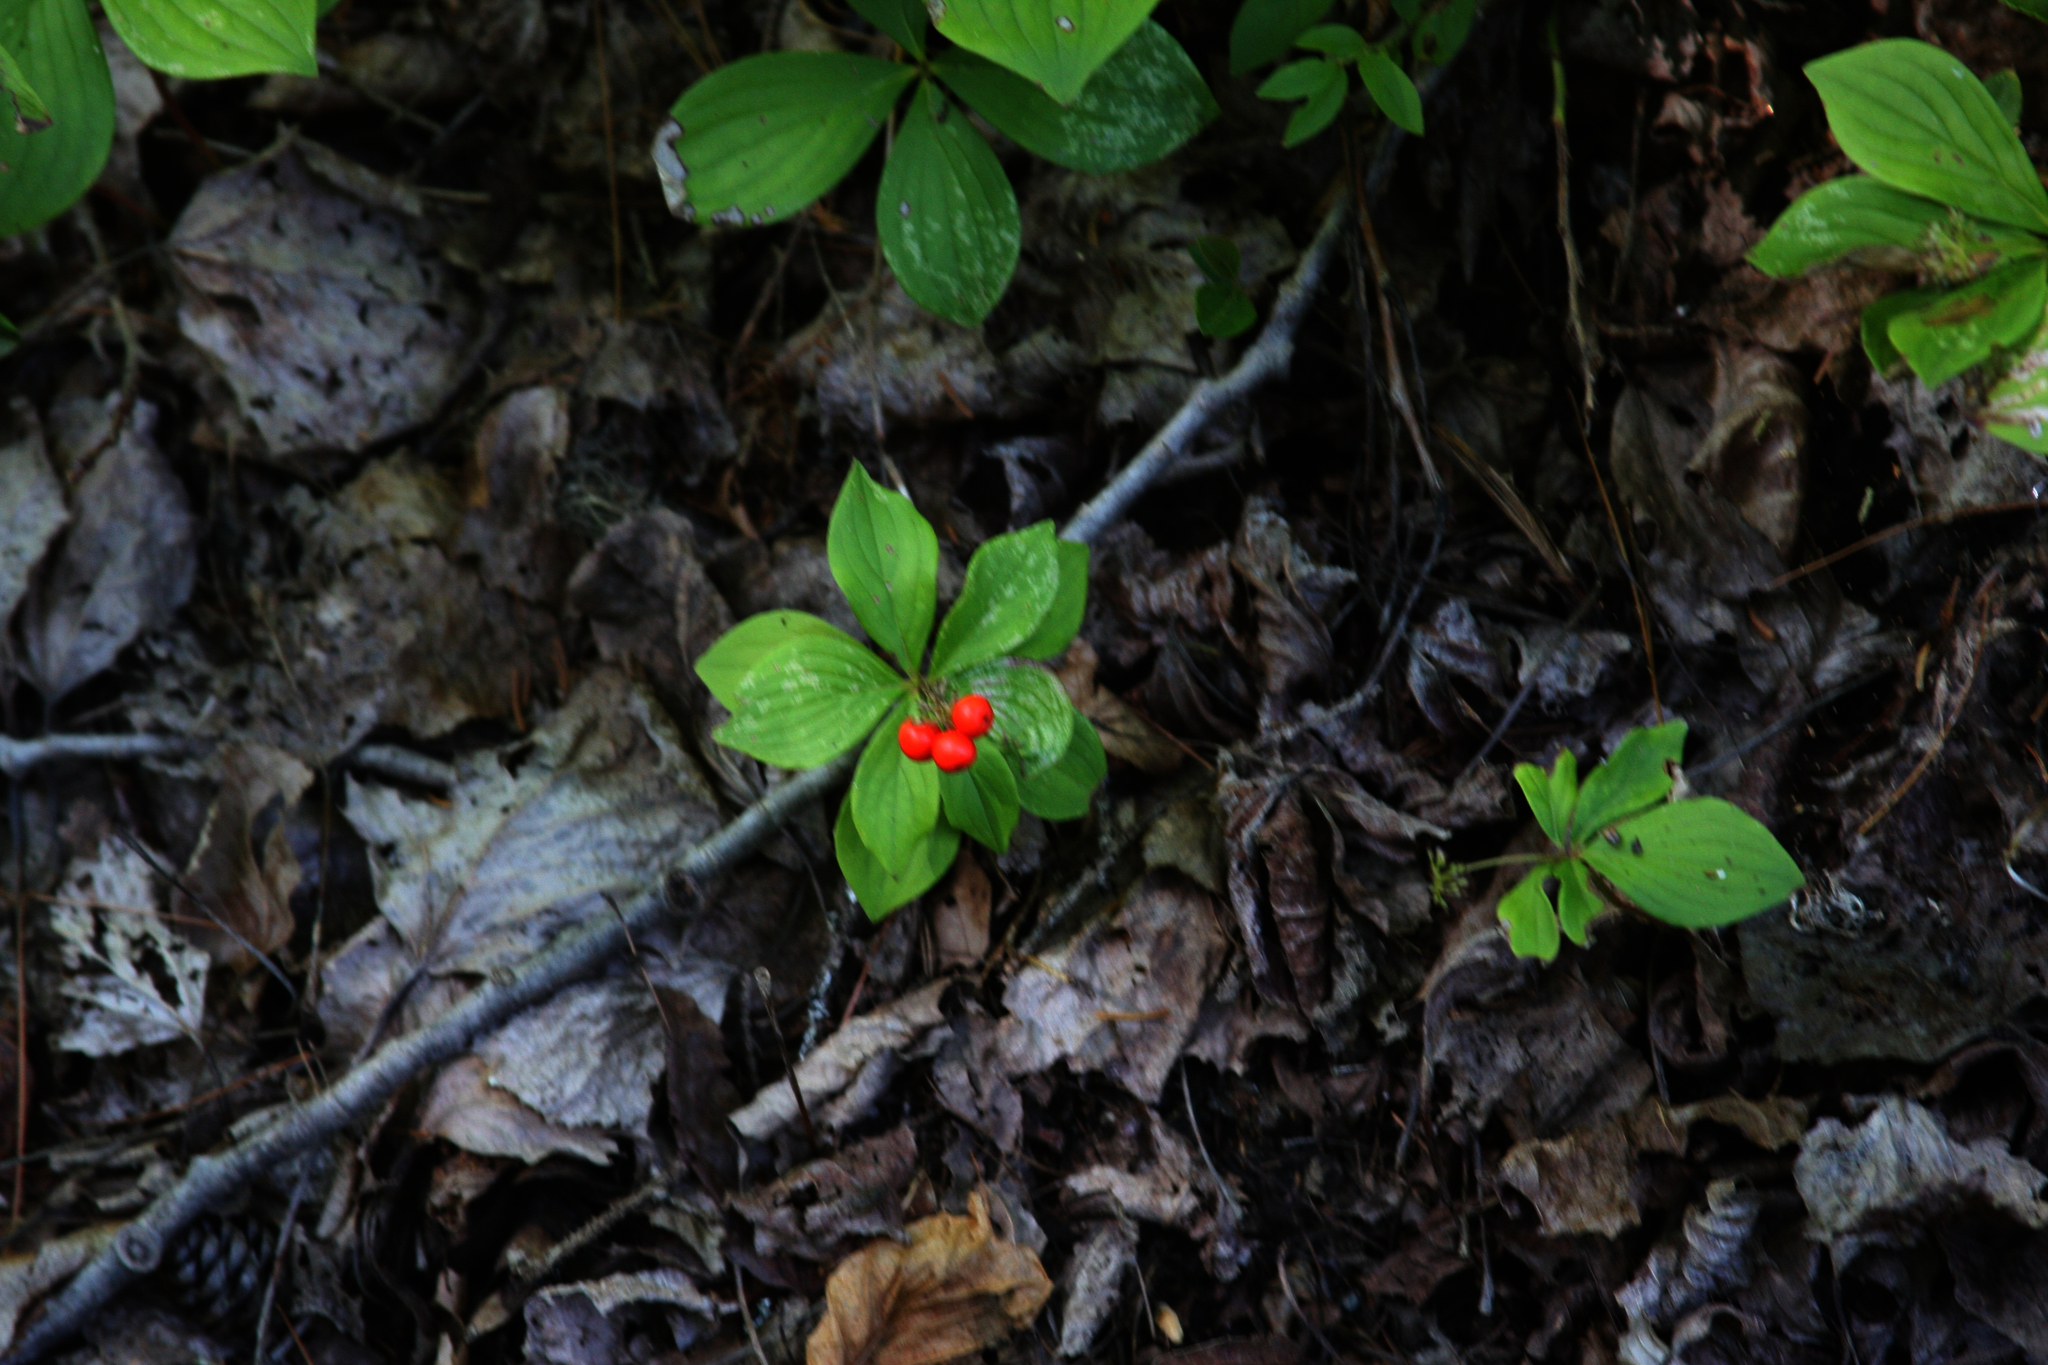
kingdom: Plantae
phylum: Tracheophyta
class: Magnoliopsida
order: Cornales
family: Cornaceae
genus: Cornus
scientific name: Cornus canadensis
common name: Creeping dogwood
